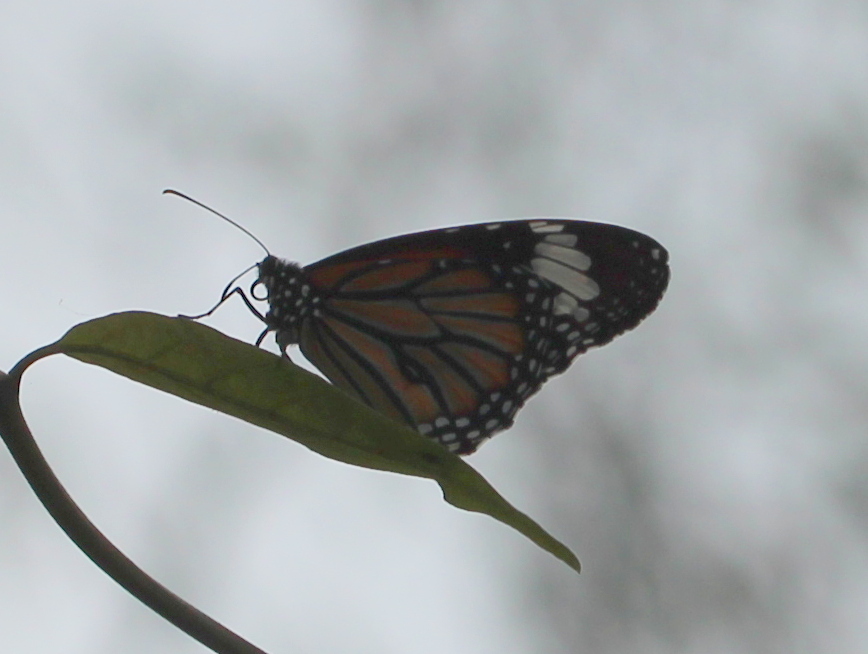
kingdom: Animalia
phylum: Arthropoda
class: Insecta
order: Lepidoptera
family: Nymphalidae
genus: Danaus
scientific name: Danaus genutia
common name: Common tiger butterfly
